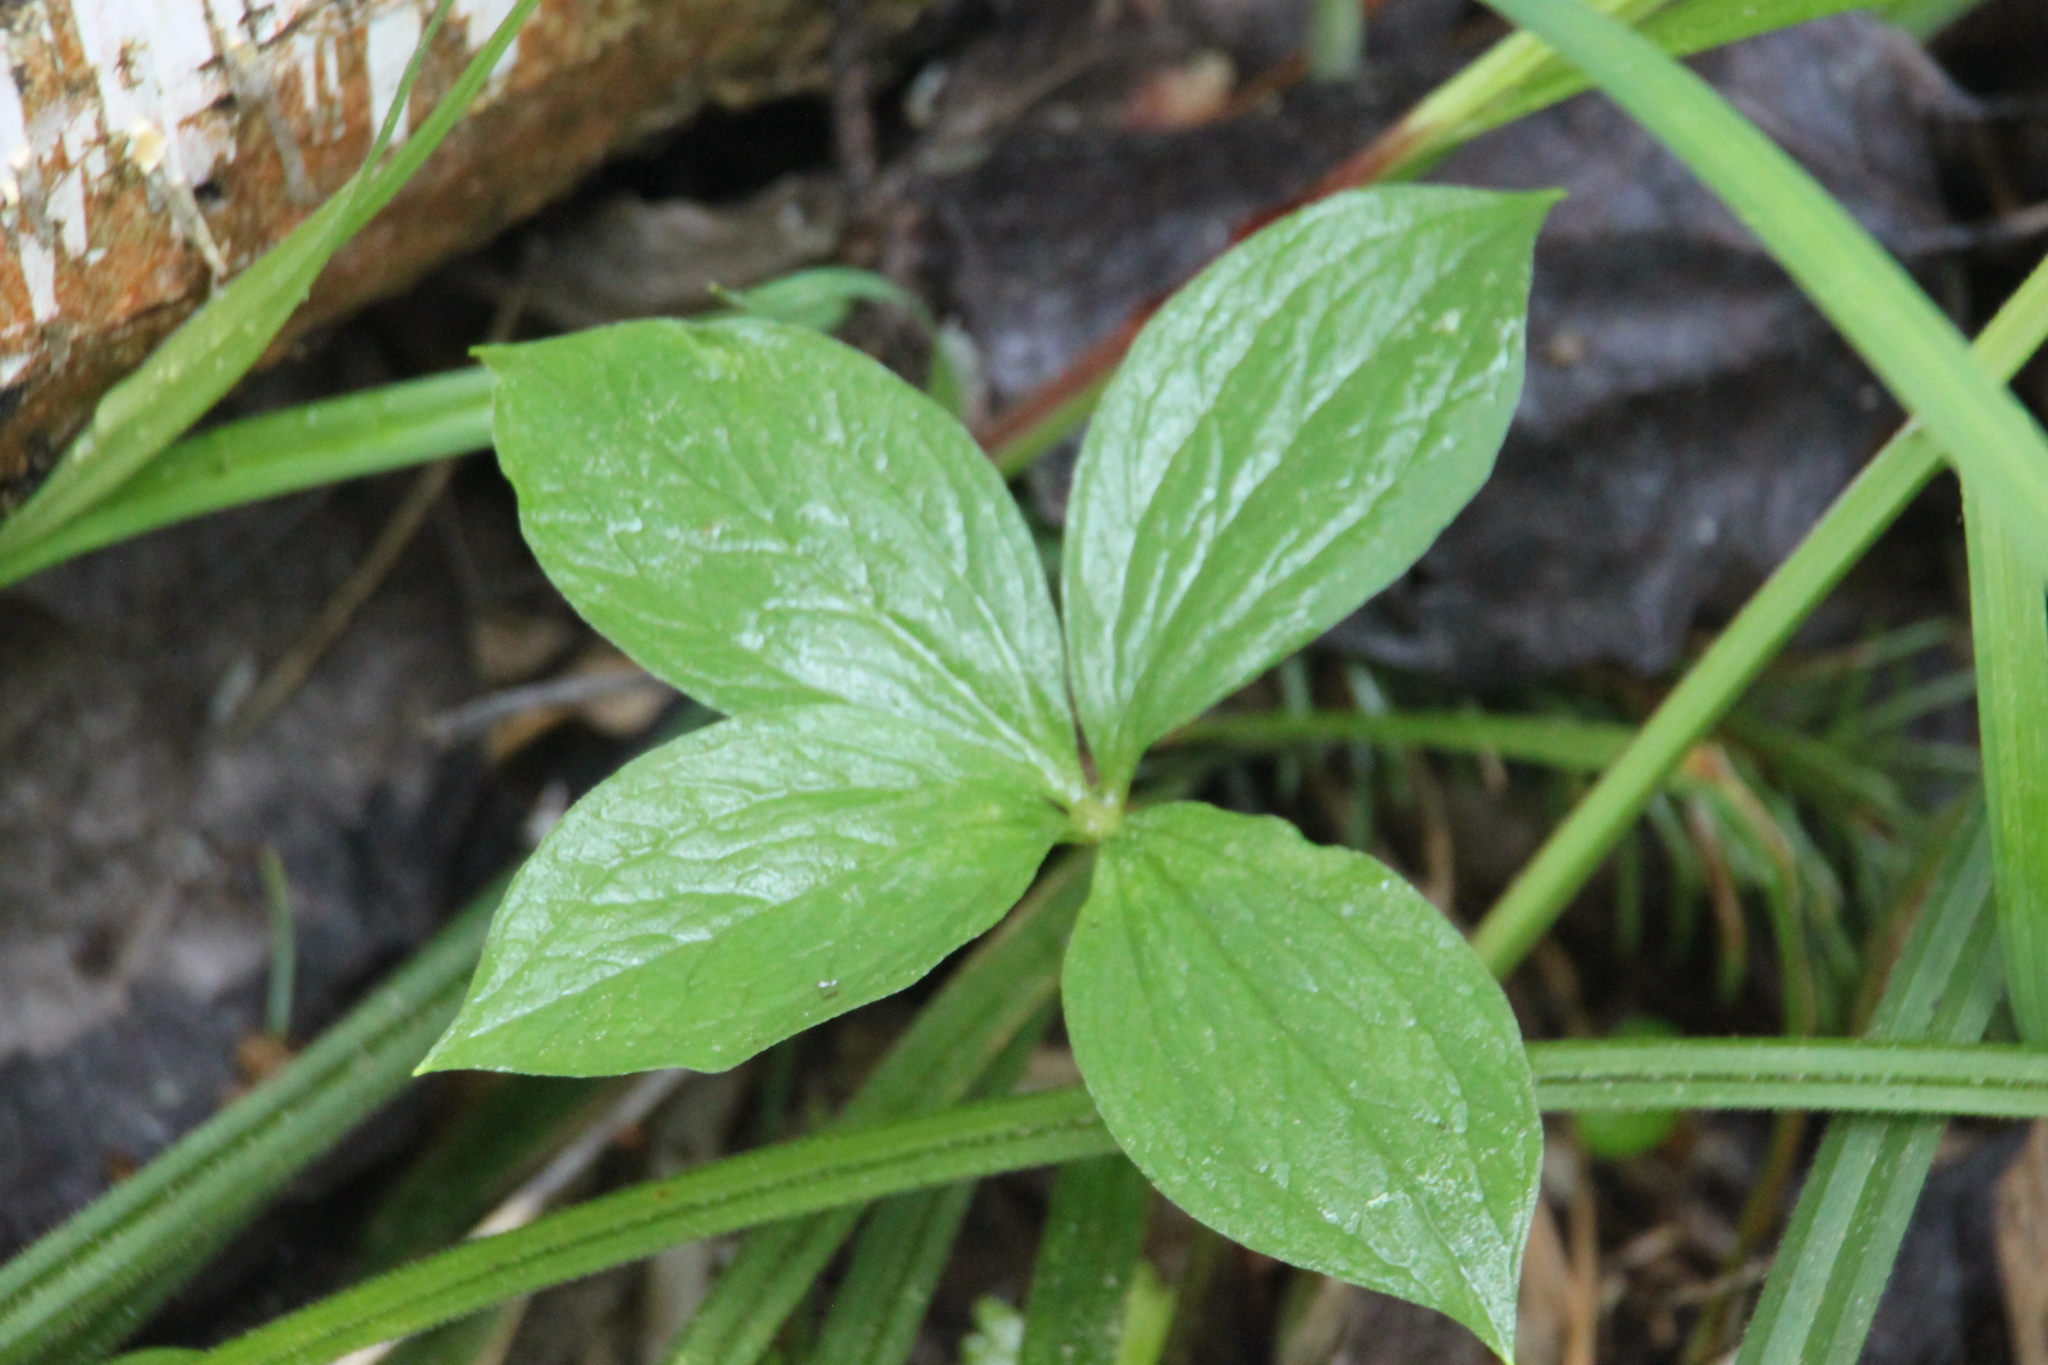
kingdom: Plantae
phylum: Tracheophyta
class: Liliopsida
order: Liliales
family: Melanthiaceae
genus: Paris
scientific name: Paris quadrifolia
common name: Herb-paris
